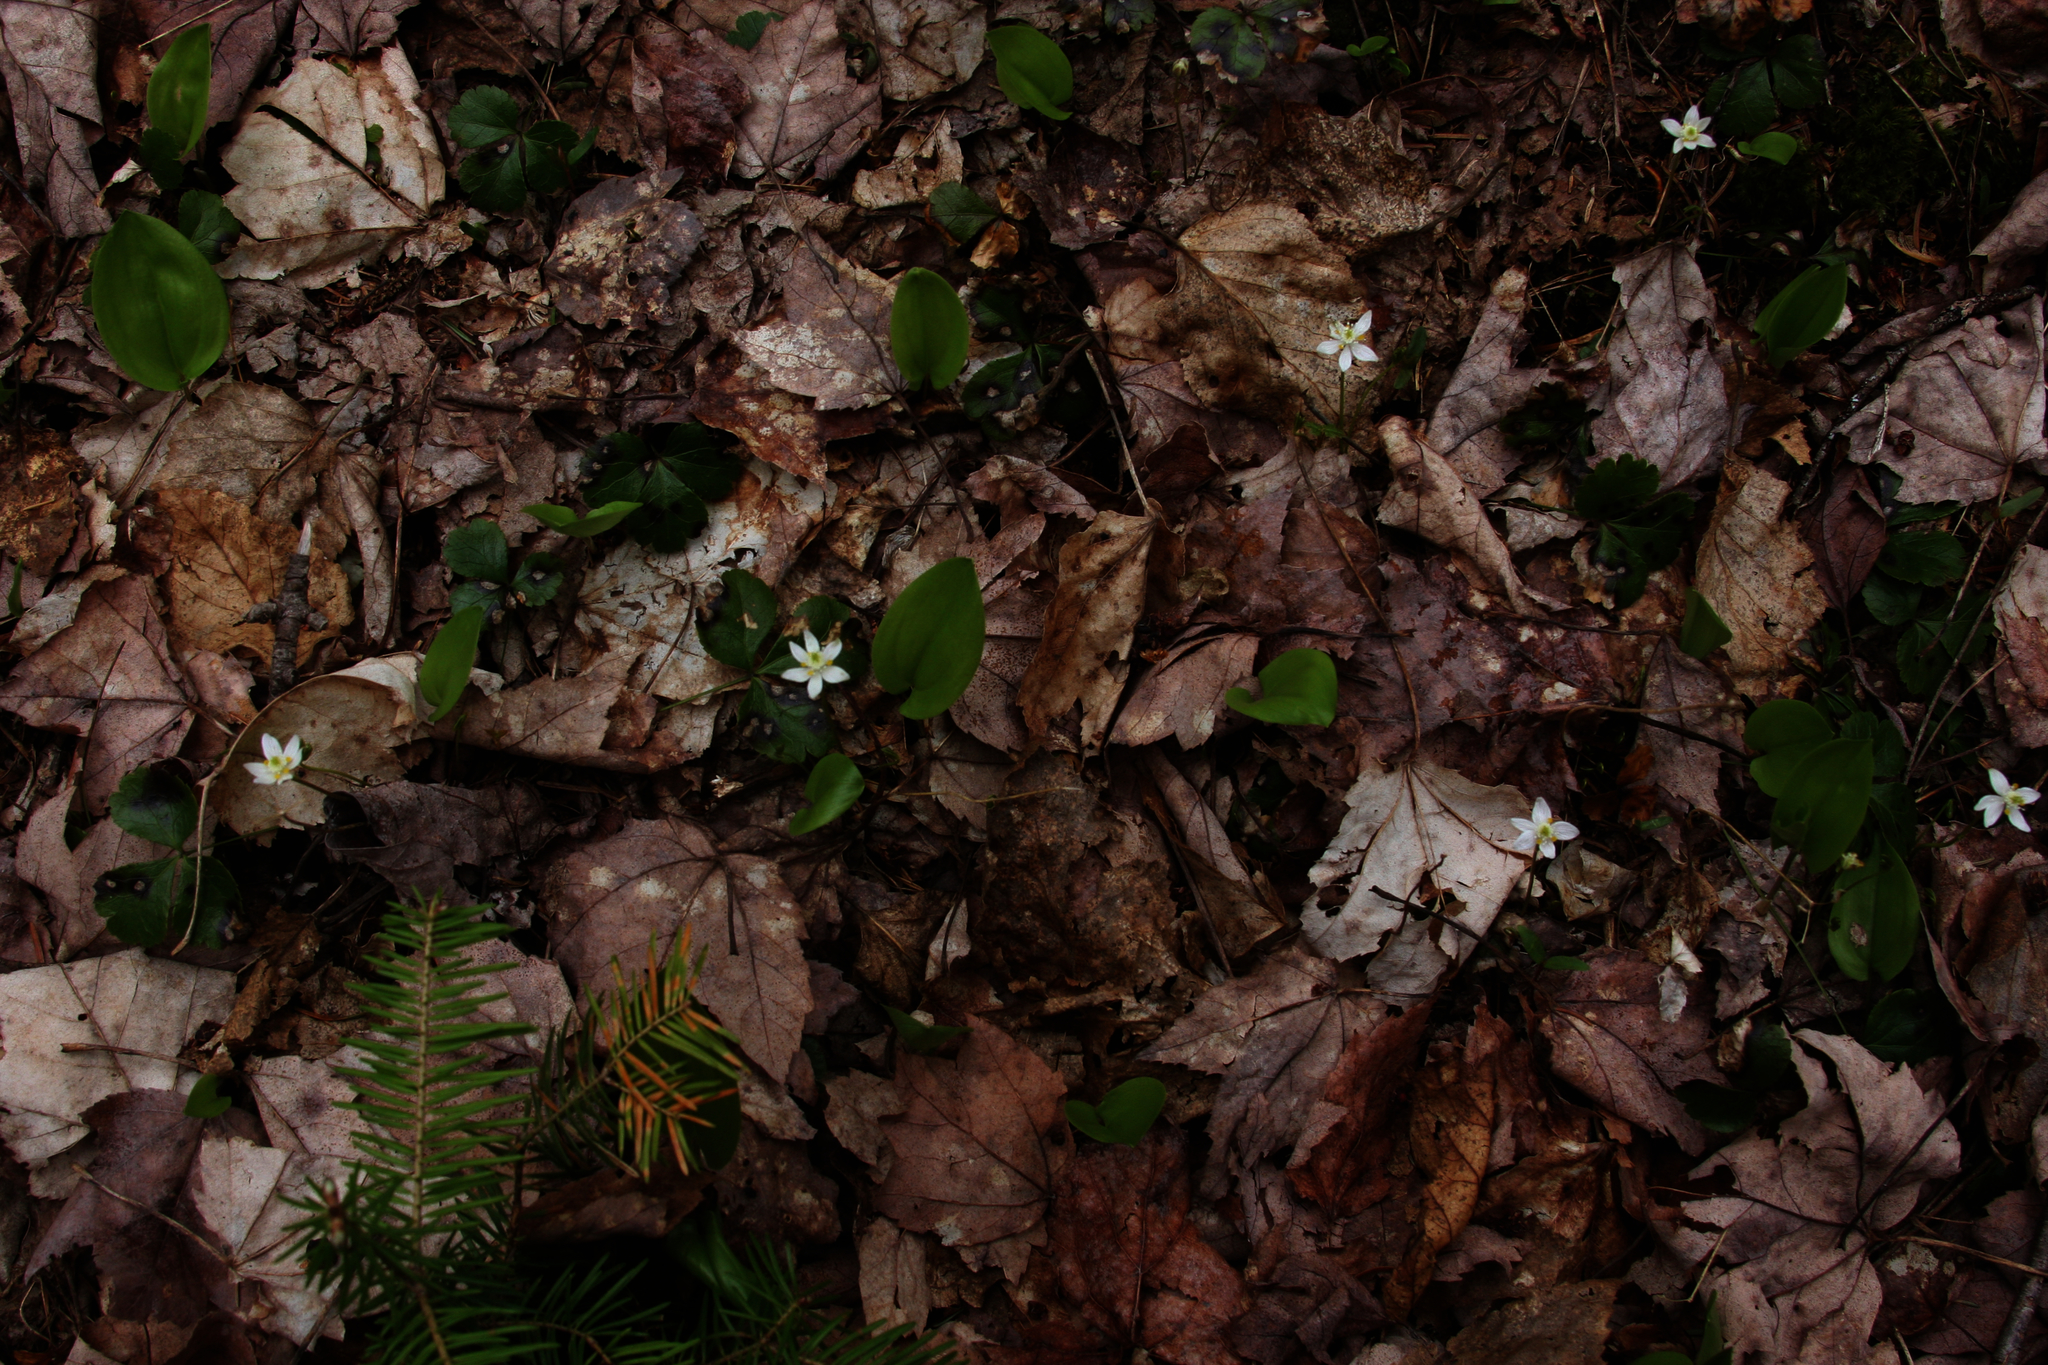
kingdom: Plantae
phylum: Tracheophyta
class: Magnoliopsida
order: Ranunculales
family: Ranunculaceae
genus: Coptis
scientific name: Coptis trifolia
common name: Canker-root
